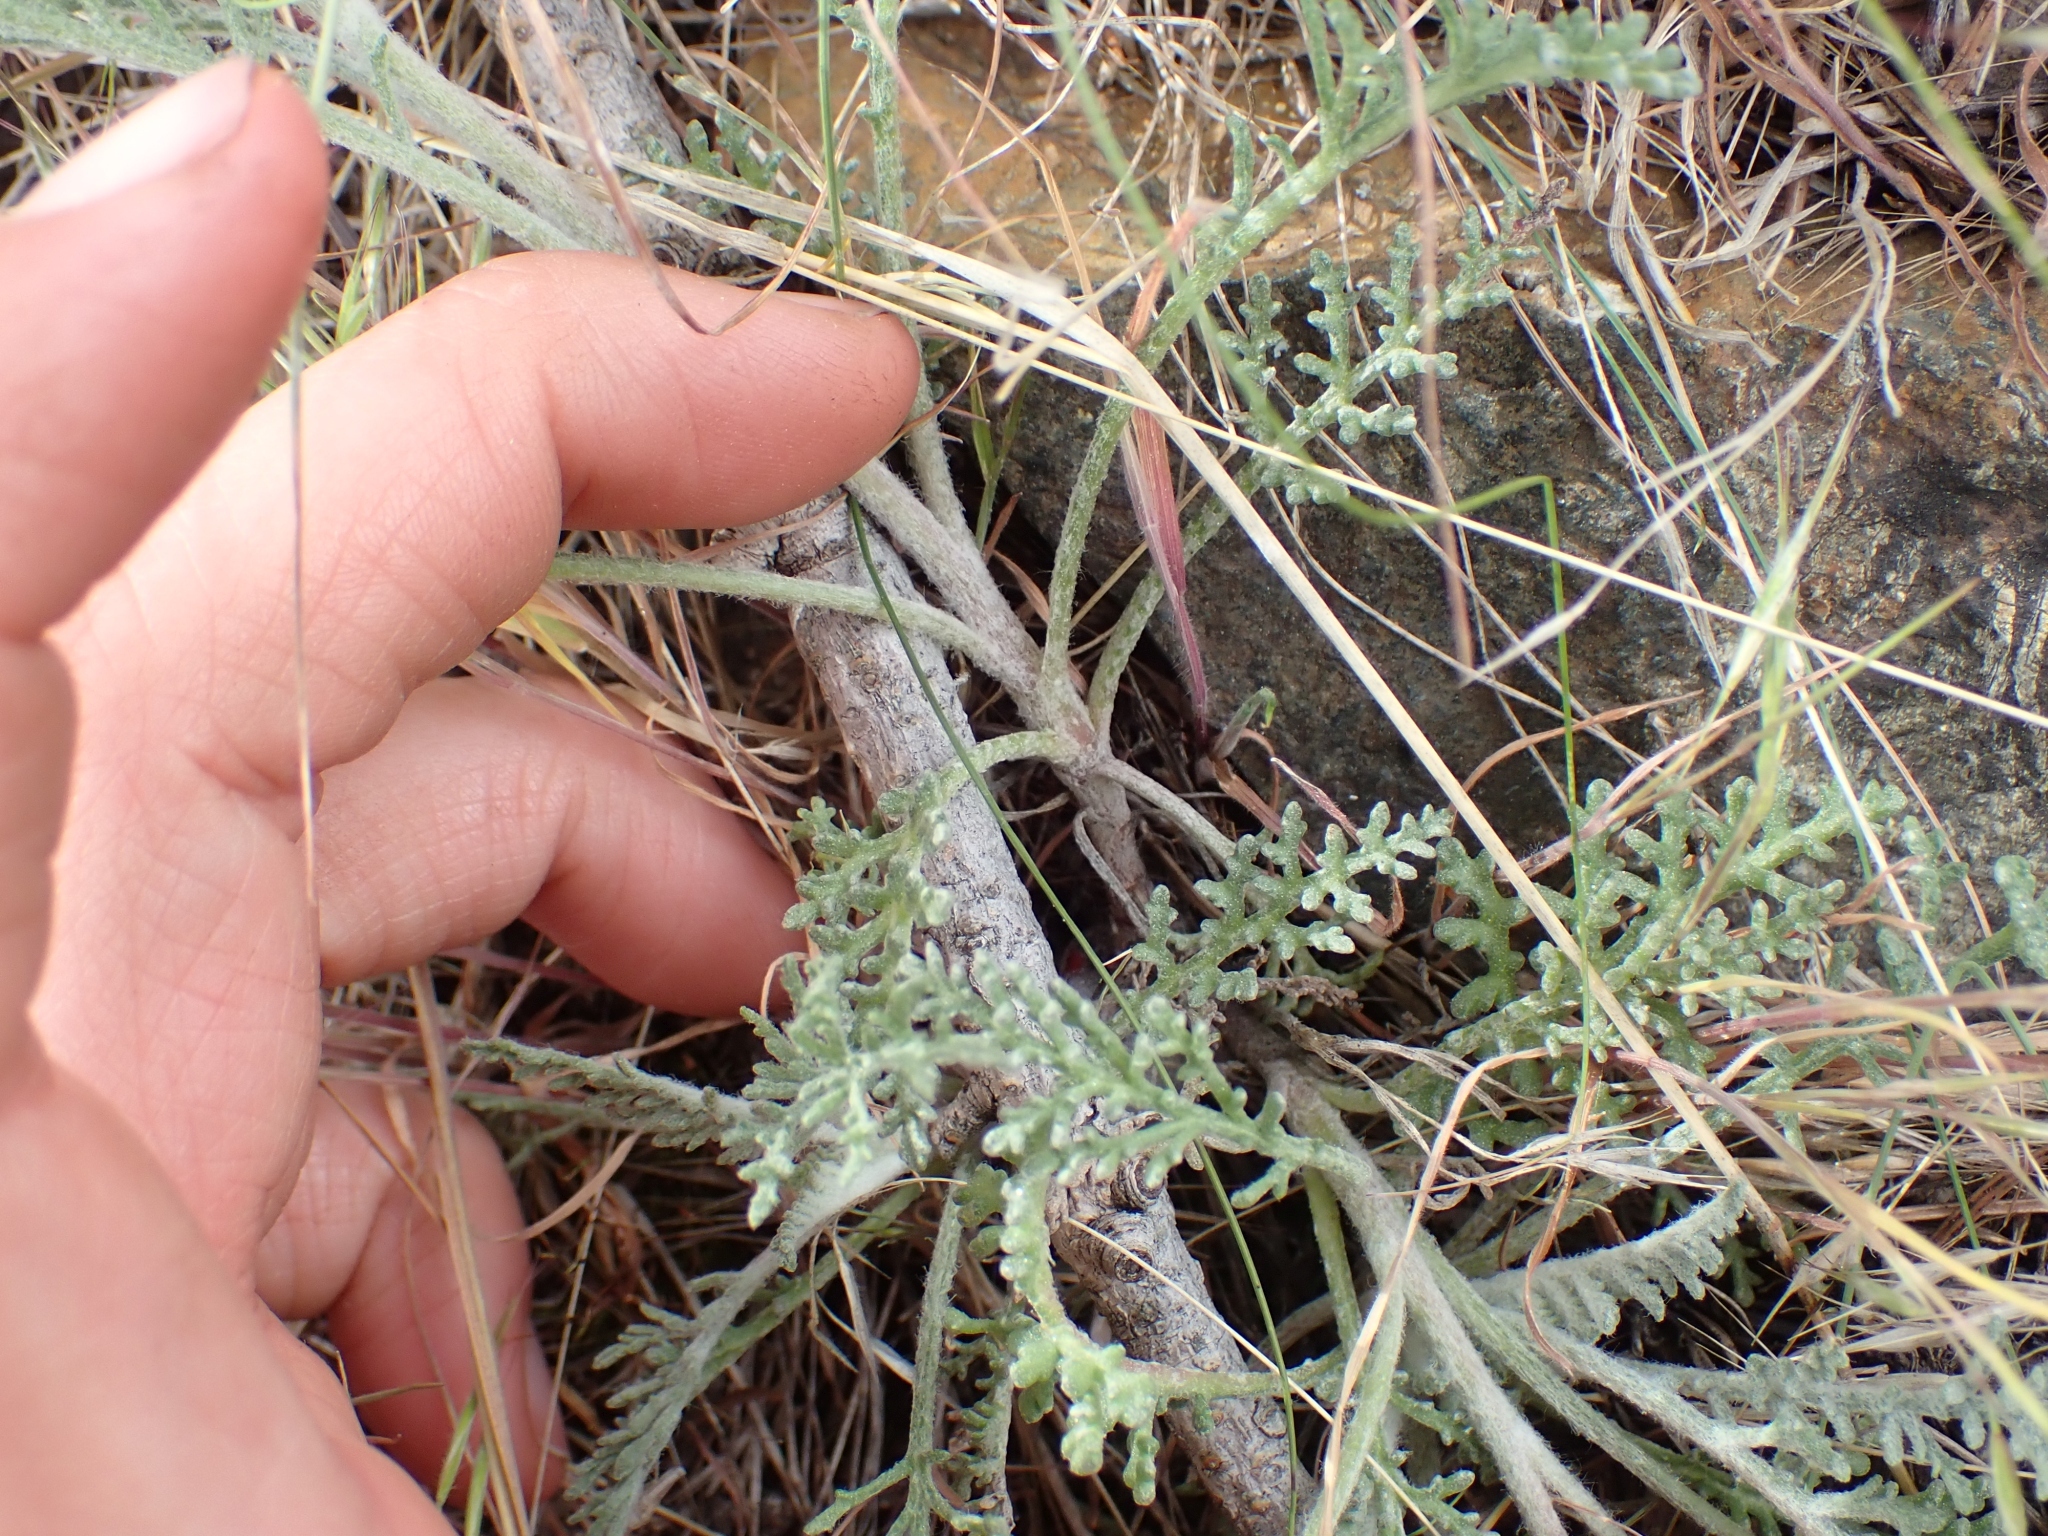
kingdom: Plantae
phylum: Tracheophyta
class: Magnoliopsida
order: Asterales
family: Asteraceae
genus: Chaenactis
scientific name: Chaenactis douglasii
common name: Hoary pincushion
